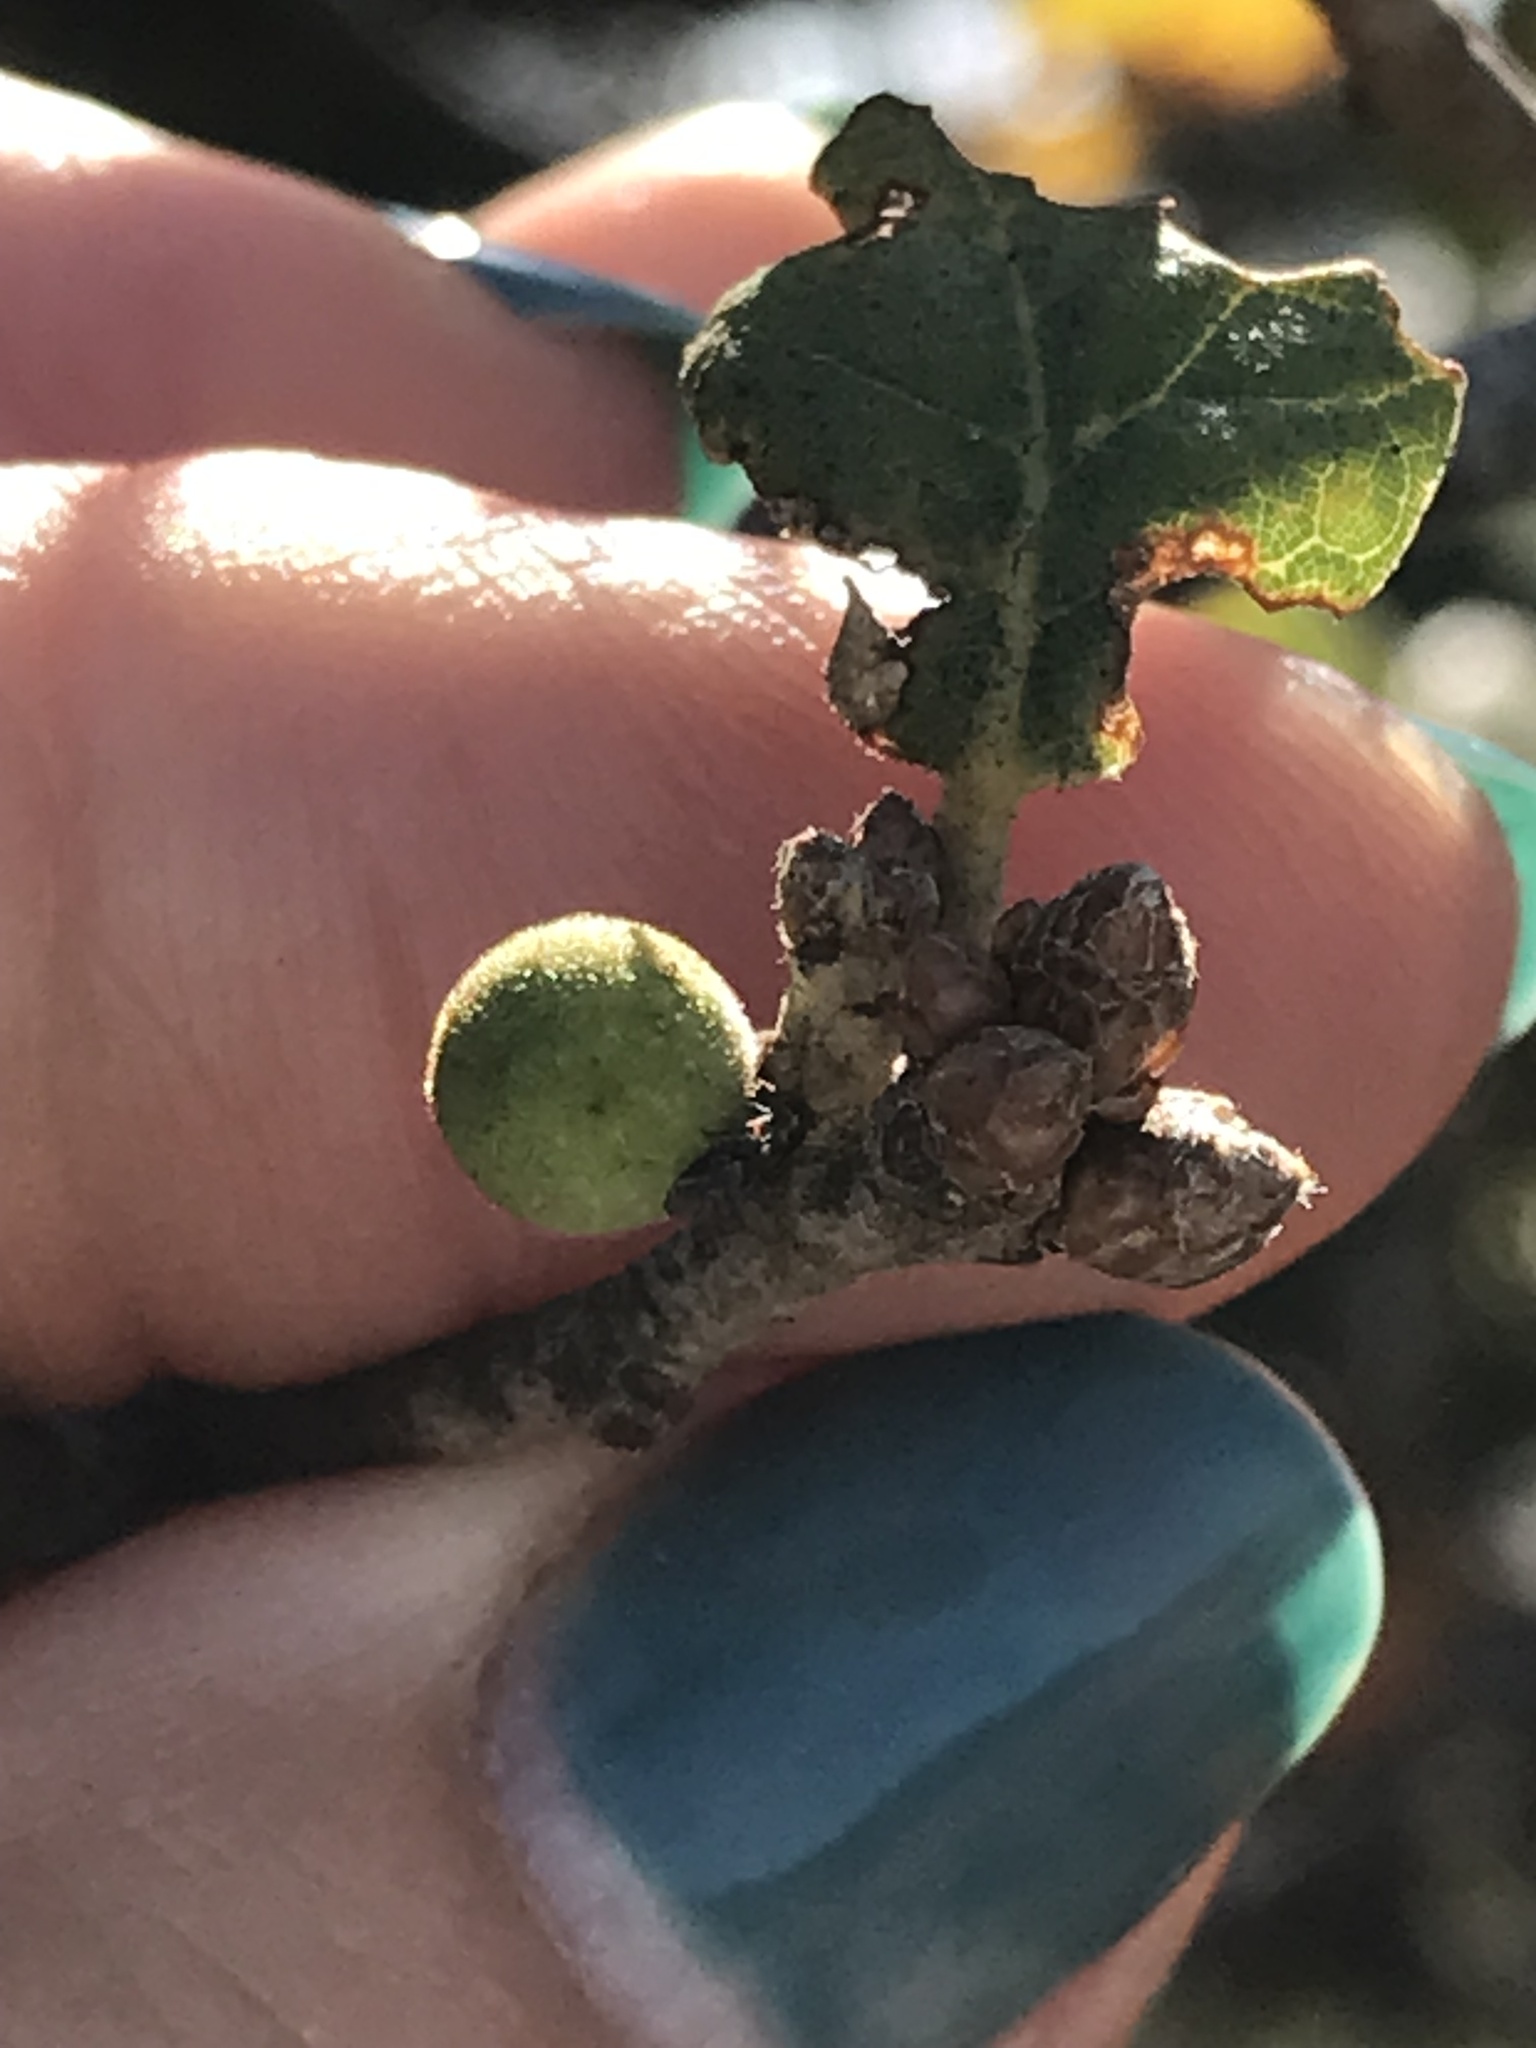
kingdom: Animalia
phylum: Arthropoda
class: Insecta
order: Hymenoptera
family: Cynipidae
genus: Callirhytis
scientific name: Callirhytis
